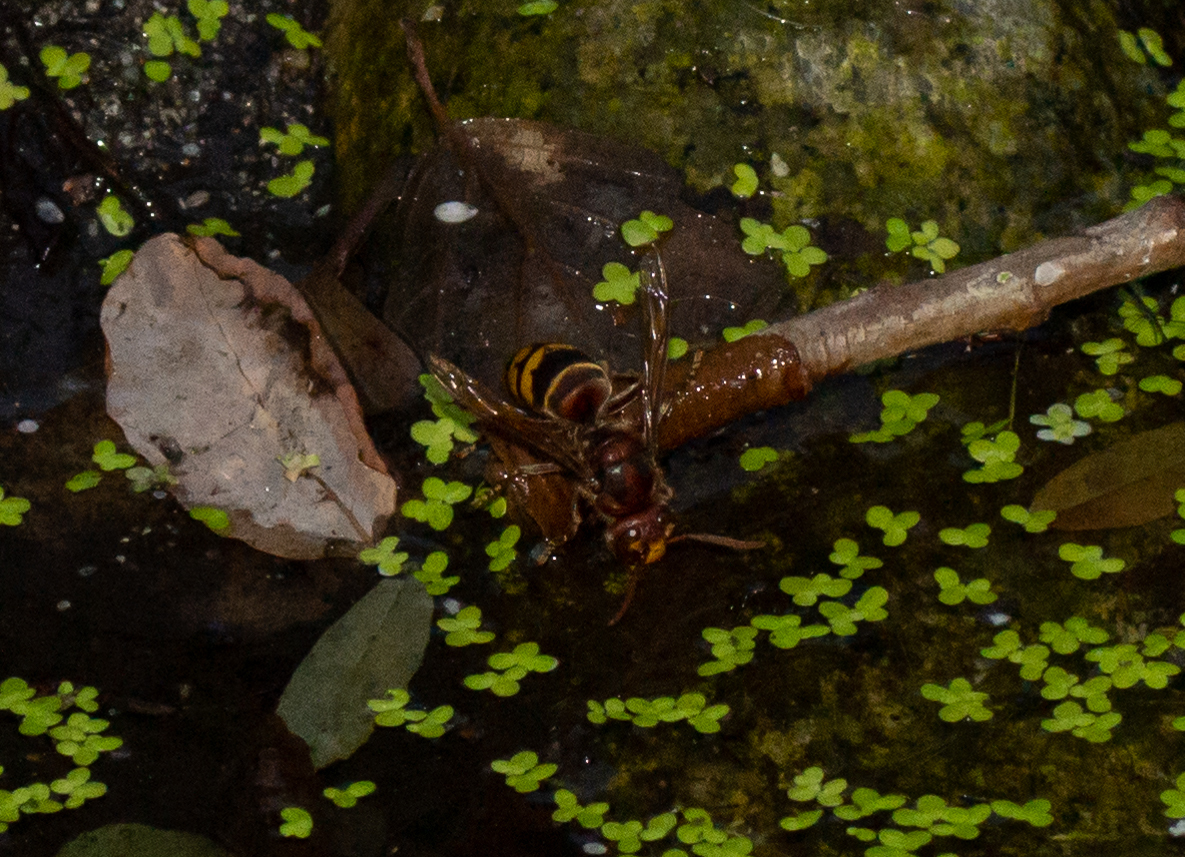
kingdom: Animalia
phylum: Arthropoda
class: Insecta
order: Hymenoptera
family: Vespidae
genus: Vespa
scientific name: Vespa crabro
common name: Hornet
